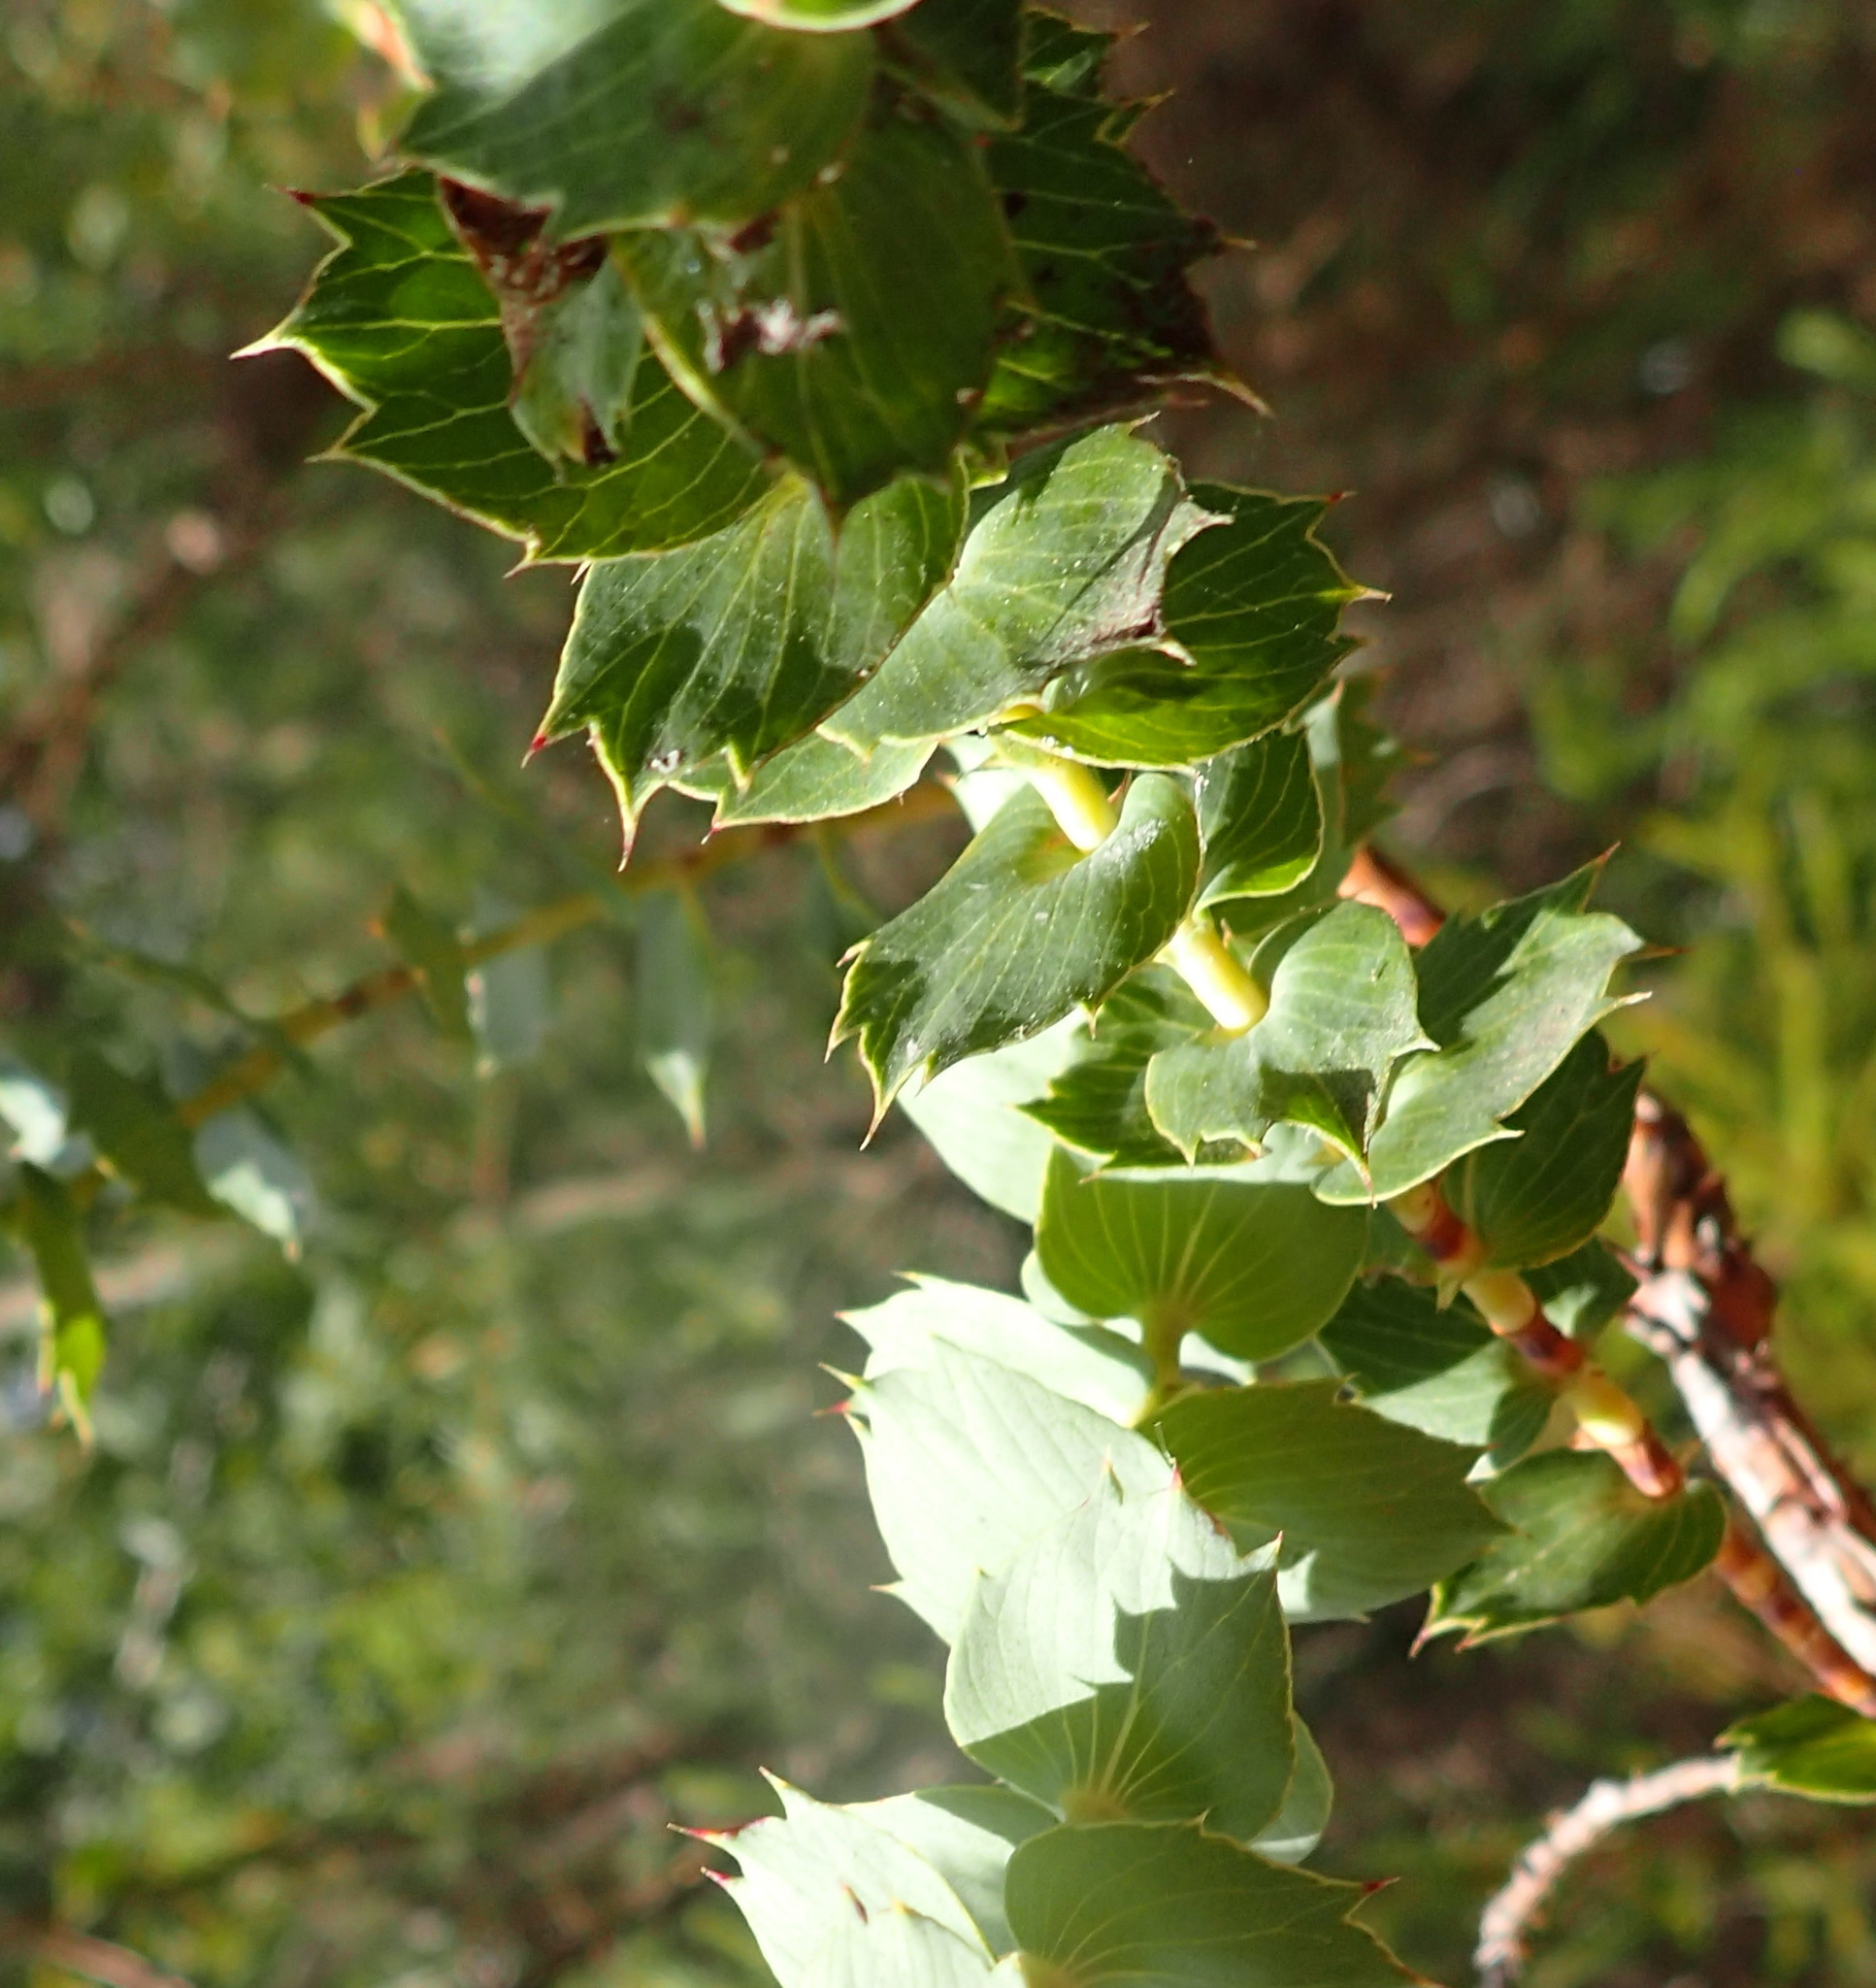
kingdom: Plantae
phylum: Tracheophyta
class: Magnoliopsida
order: Rosales
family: Rosaceae
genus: Cliffortia
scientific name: Cliffortia ilicifolia
